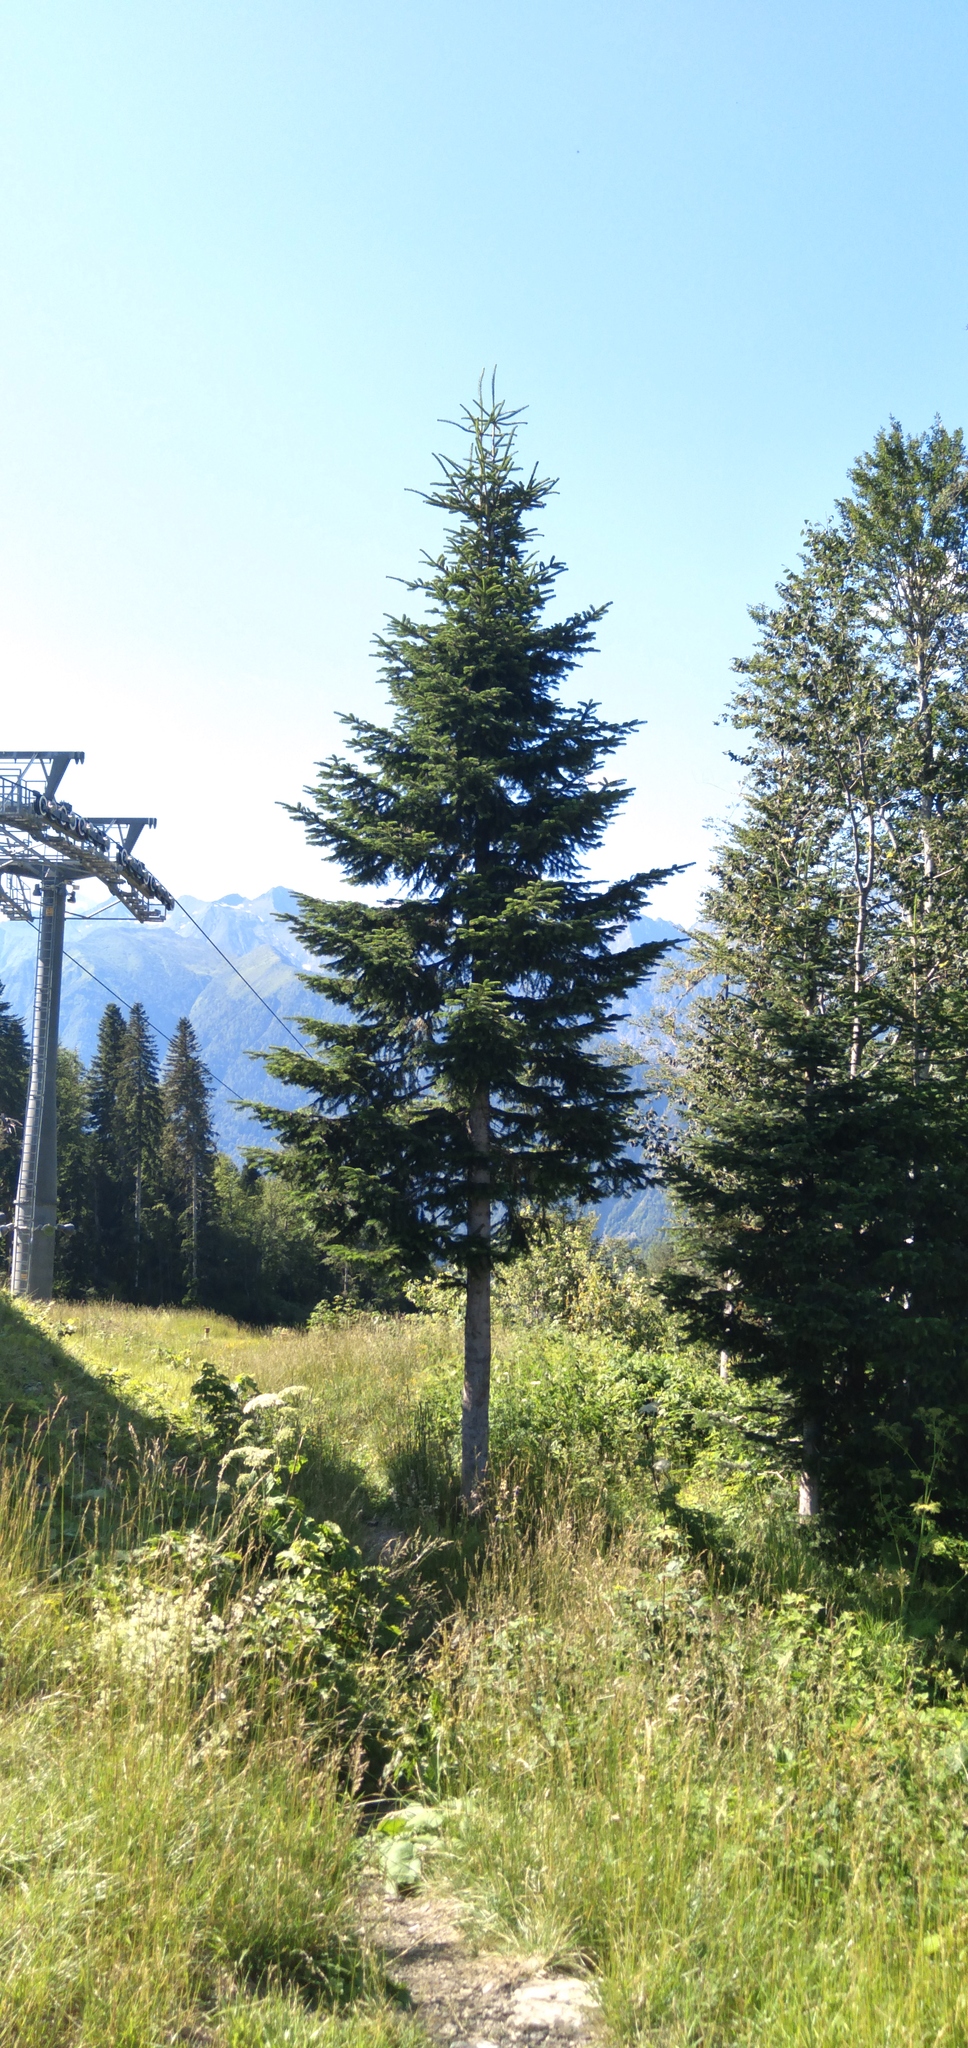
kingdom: Plantae
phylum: Tracheophyta
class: Pinopsida
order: Pinales
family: Pinaceae
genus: Abies
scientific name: Abies nordmanniana
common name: Caucasian fir
